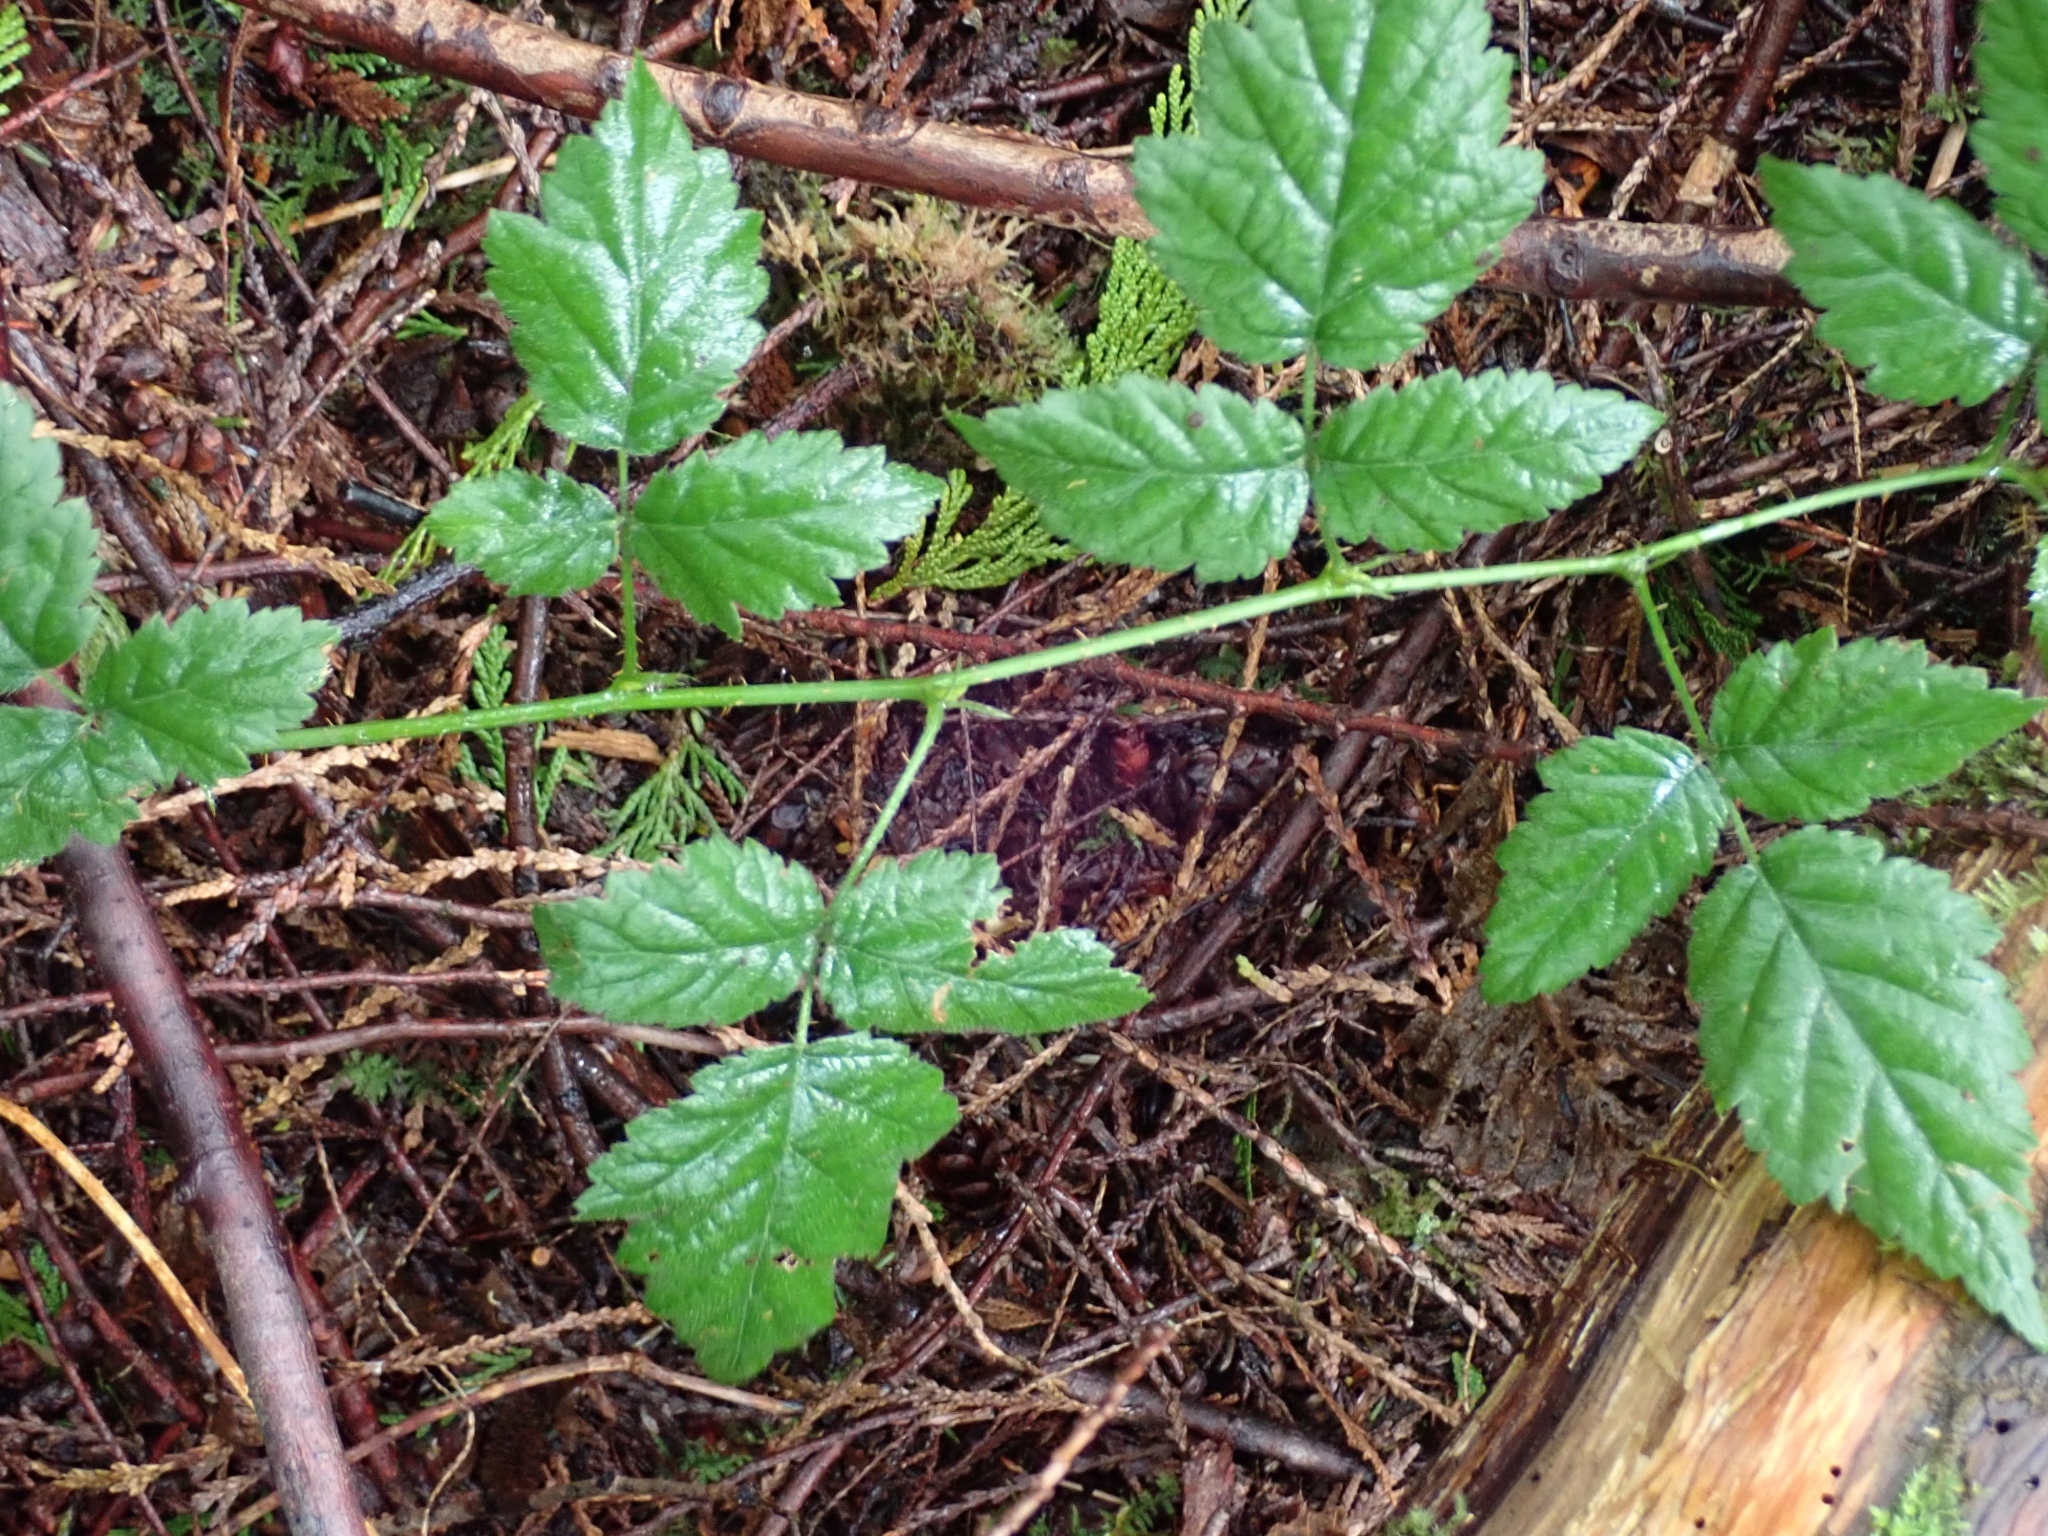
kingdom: Plantae
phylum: Tracheophyta
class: Magnoliopsida
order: Rosales
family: Rosaceae
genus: Rubus
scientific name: Rubus ursinus
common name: Pacific blackberry
